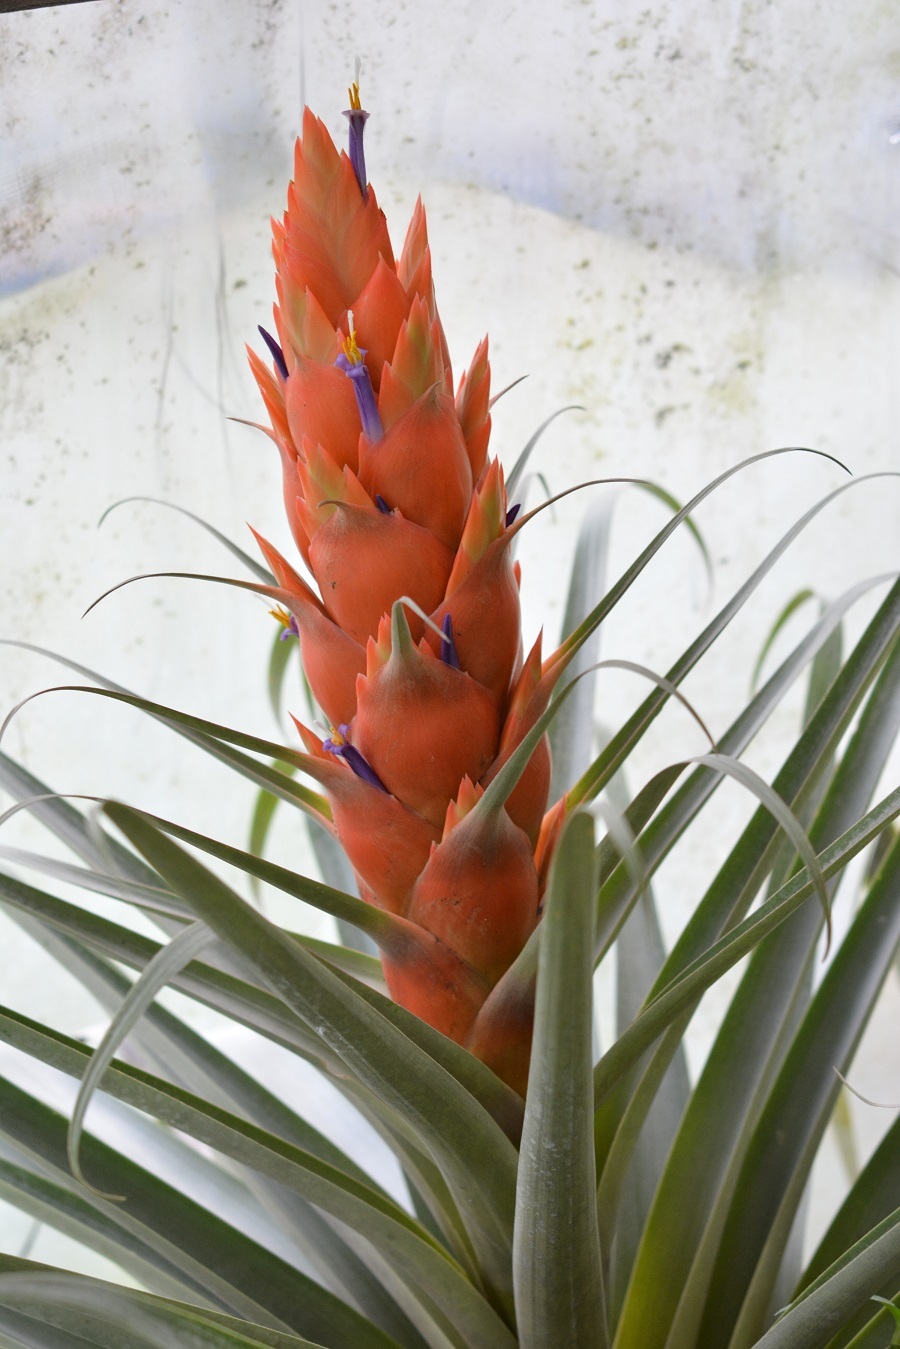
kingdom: Plantae
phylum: Tracheophyta
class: Liliopsida
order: Poales
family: Bromeliaceae
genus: Tillandsia
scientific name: Tillandsia ponderosa
